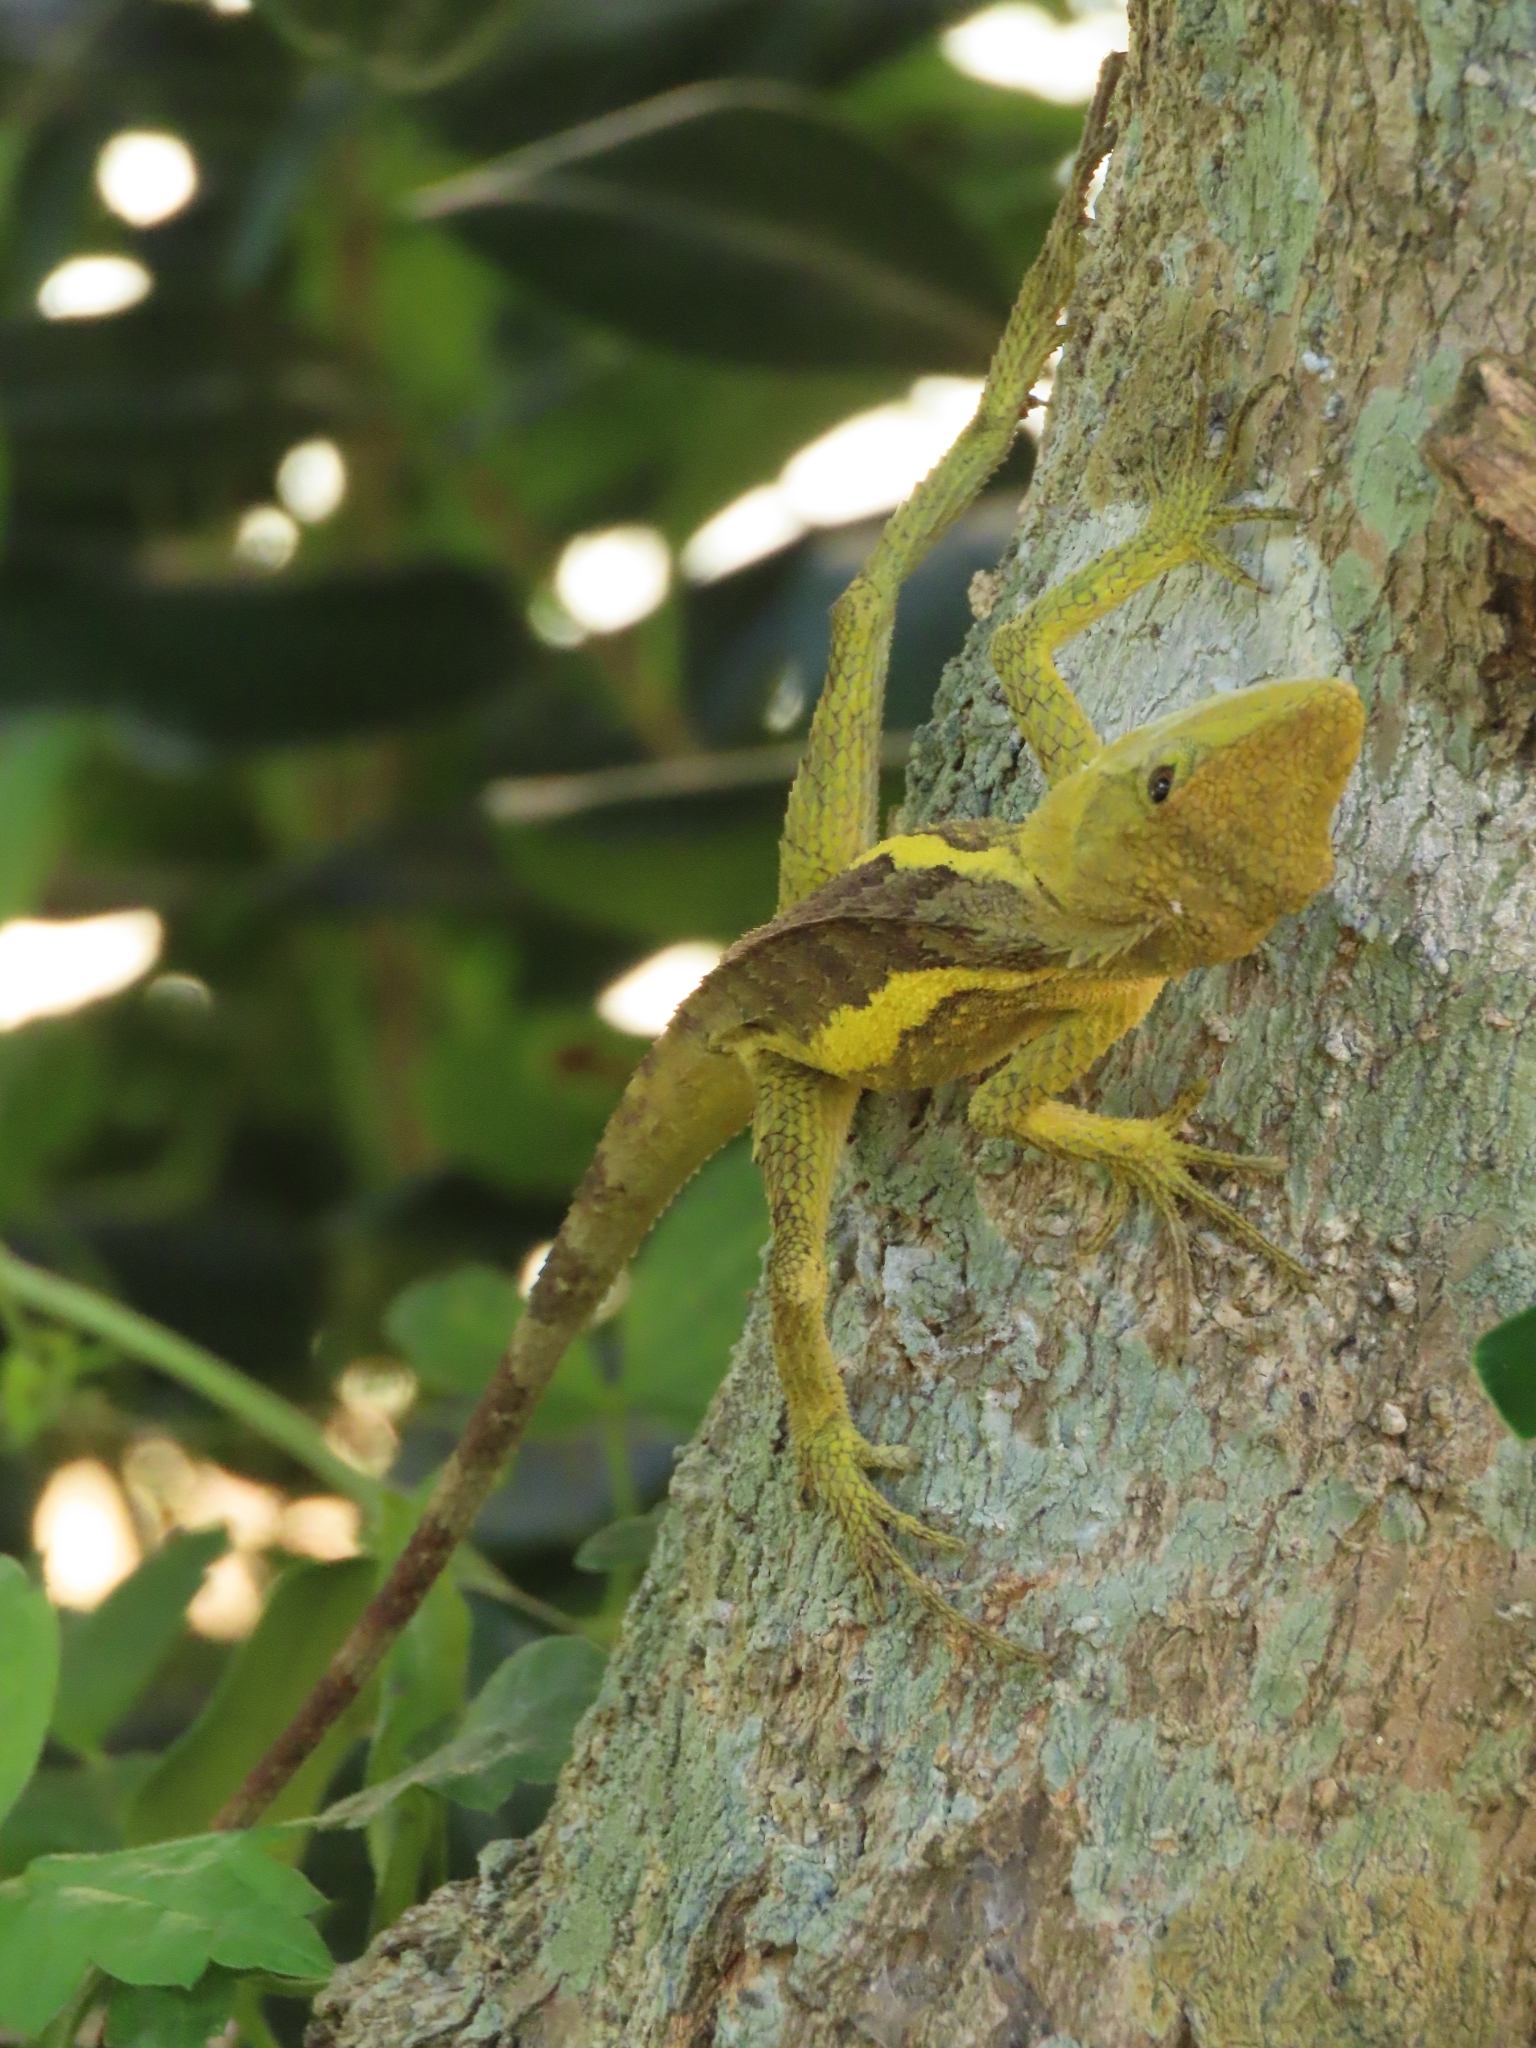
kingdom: Animalia
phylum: Chordata
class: Squamata
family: Agamidae
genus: Diploderma
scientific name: Diploderma swinhonis
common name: Taiwan japalure
